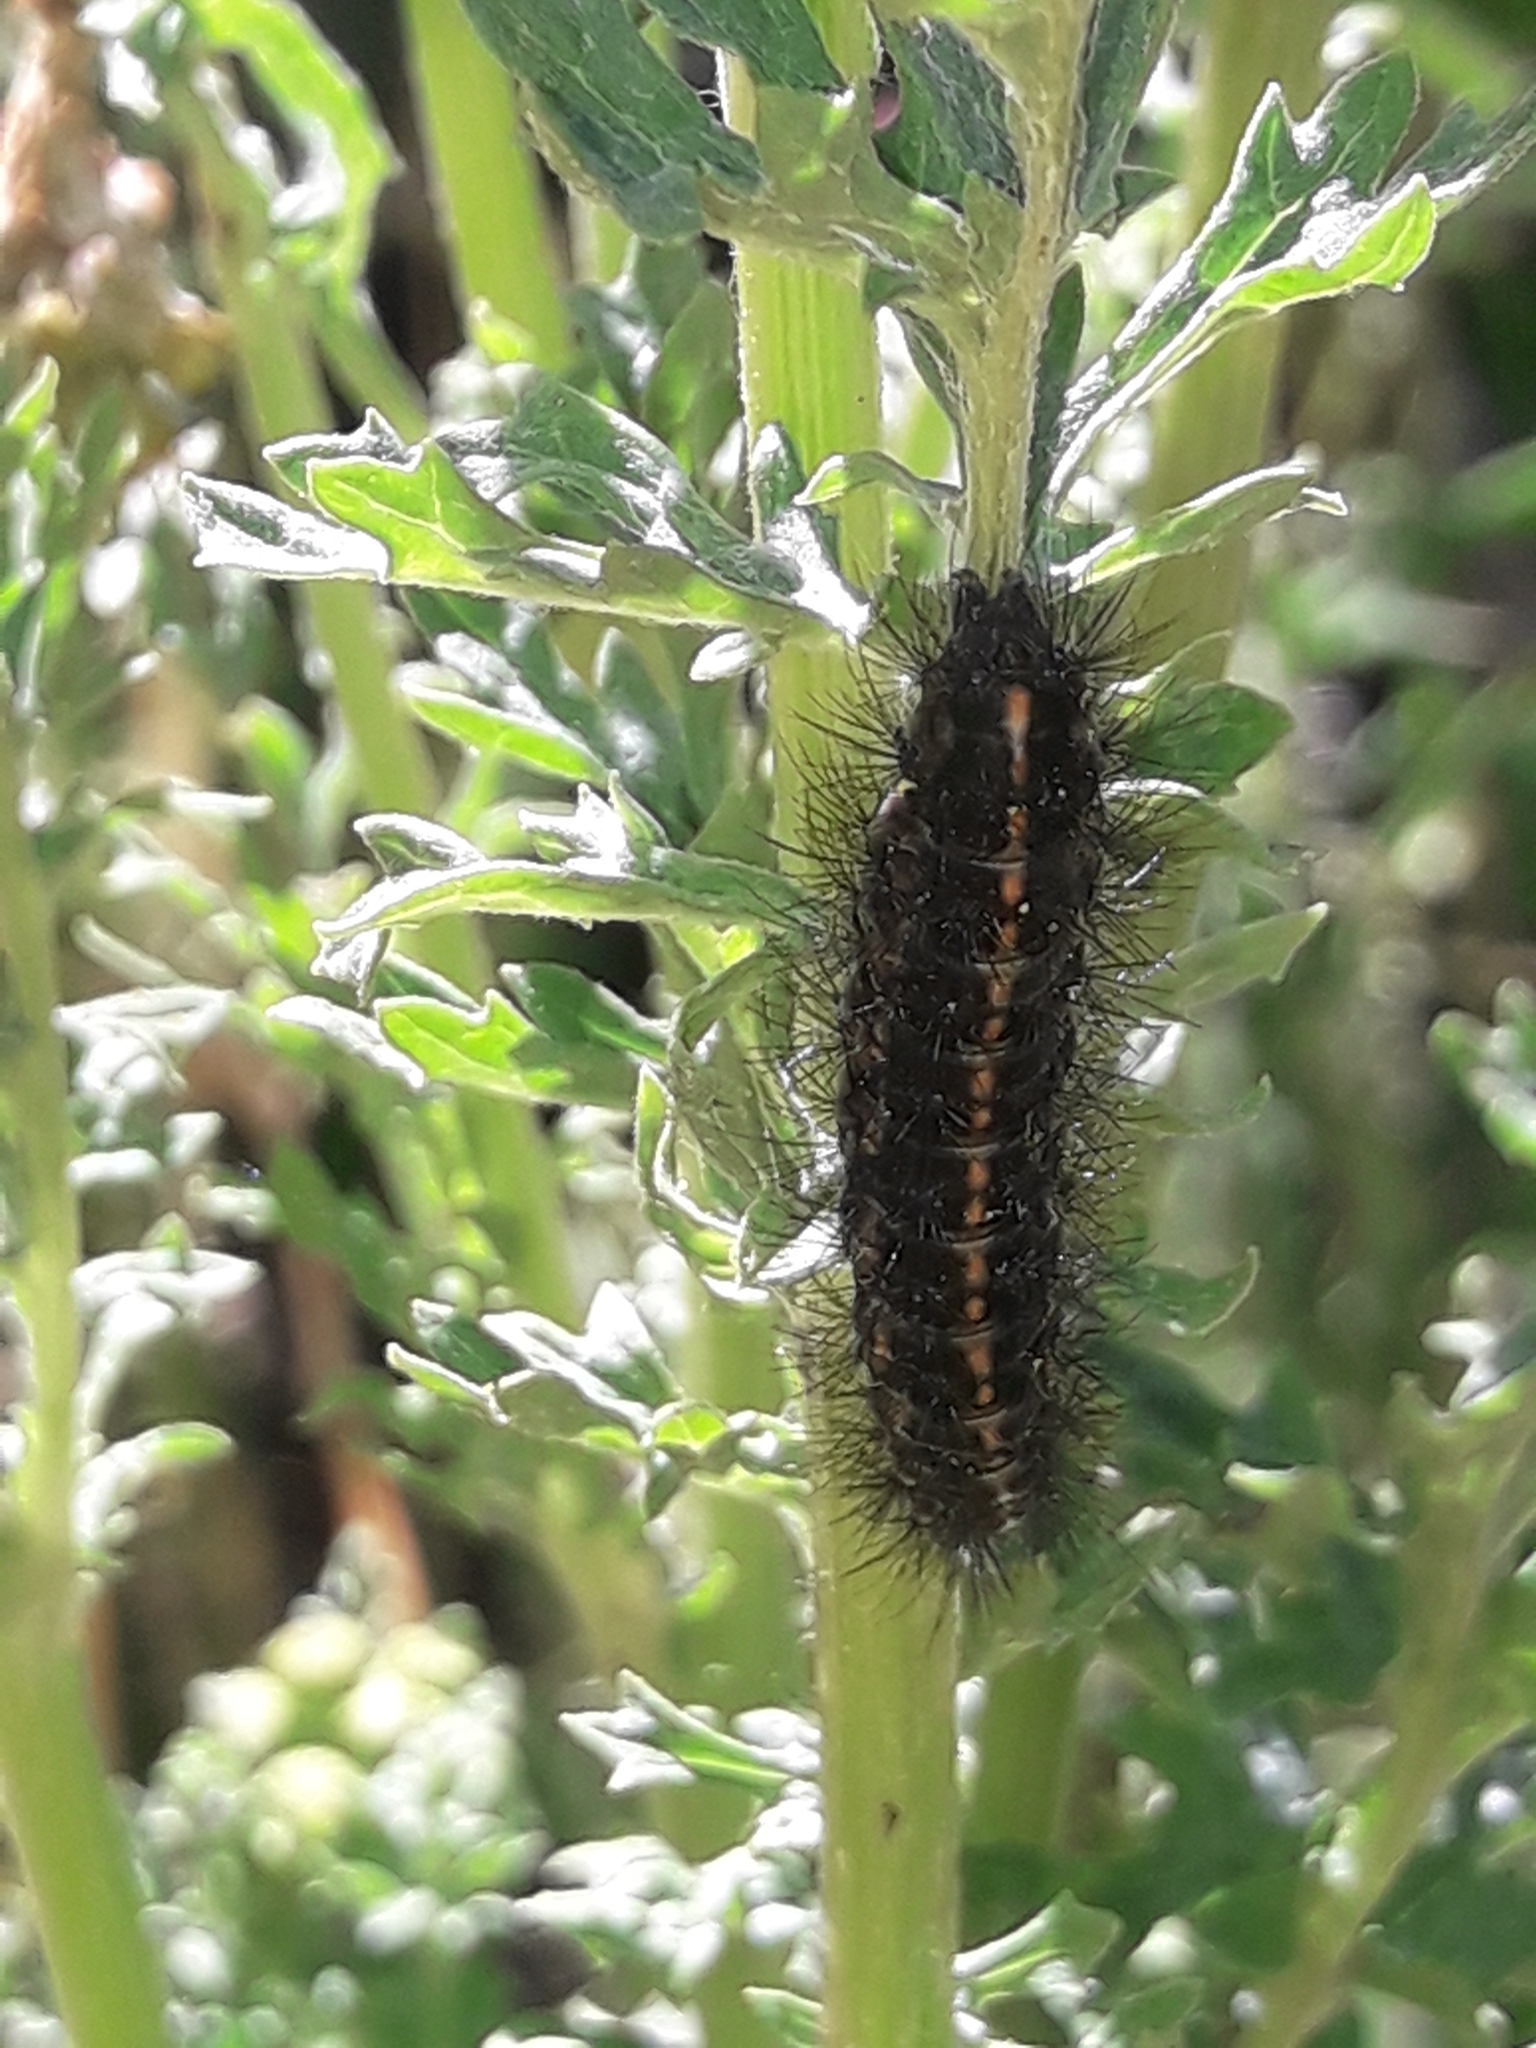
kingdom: Animalia
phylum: Arthropoda
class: Insecta
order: Lepidoptera
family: Erebidae
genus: Nyctemera
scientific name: Nyctemera annulatum
